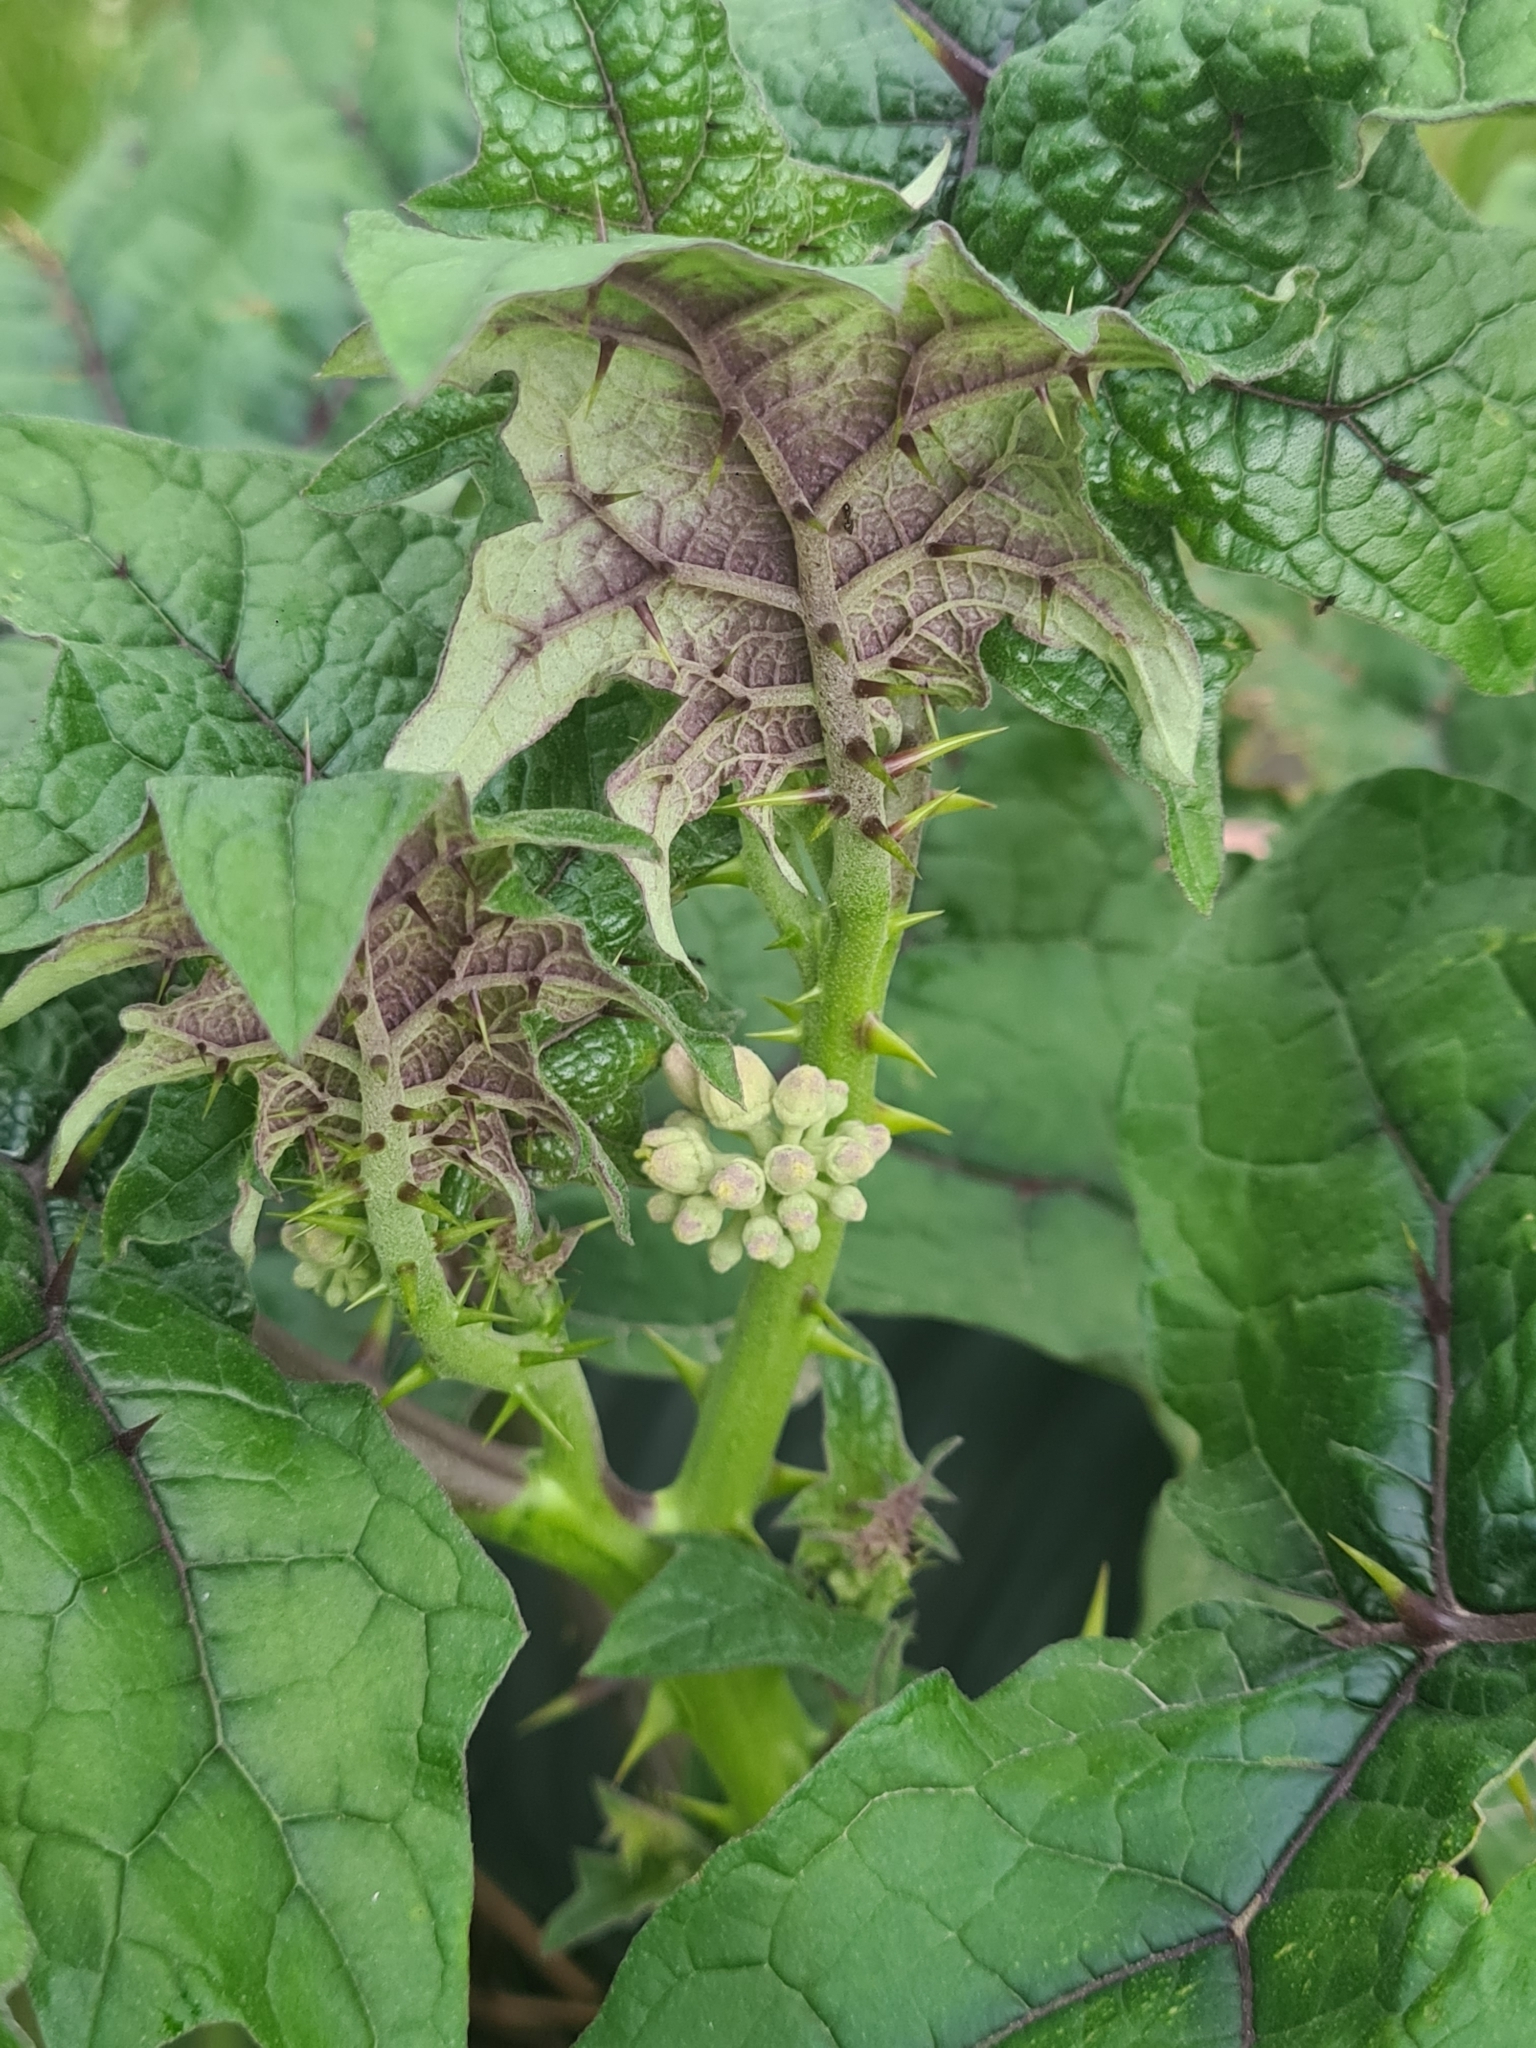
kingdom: Plantae
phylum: Tracheophyta
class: Magnoliopsida
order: Solanales
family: Solanaceae
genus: Solanum
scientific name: Solanum
